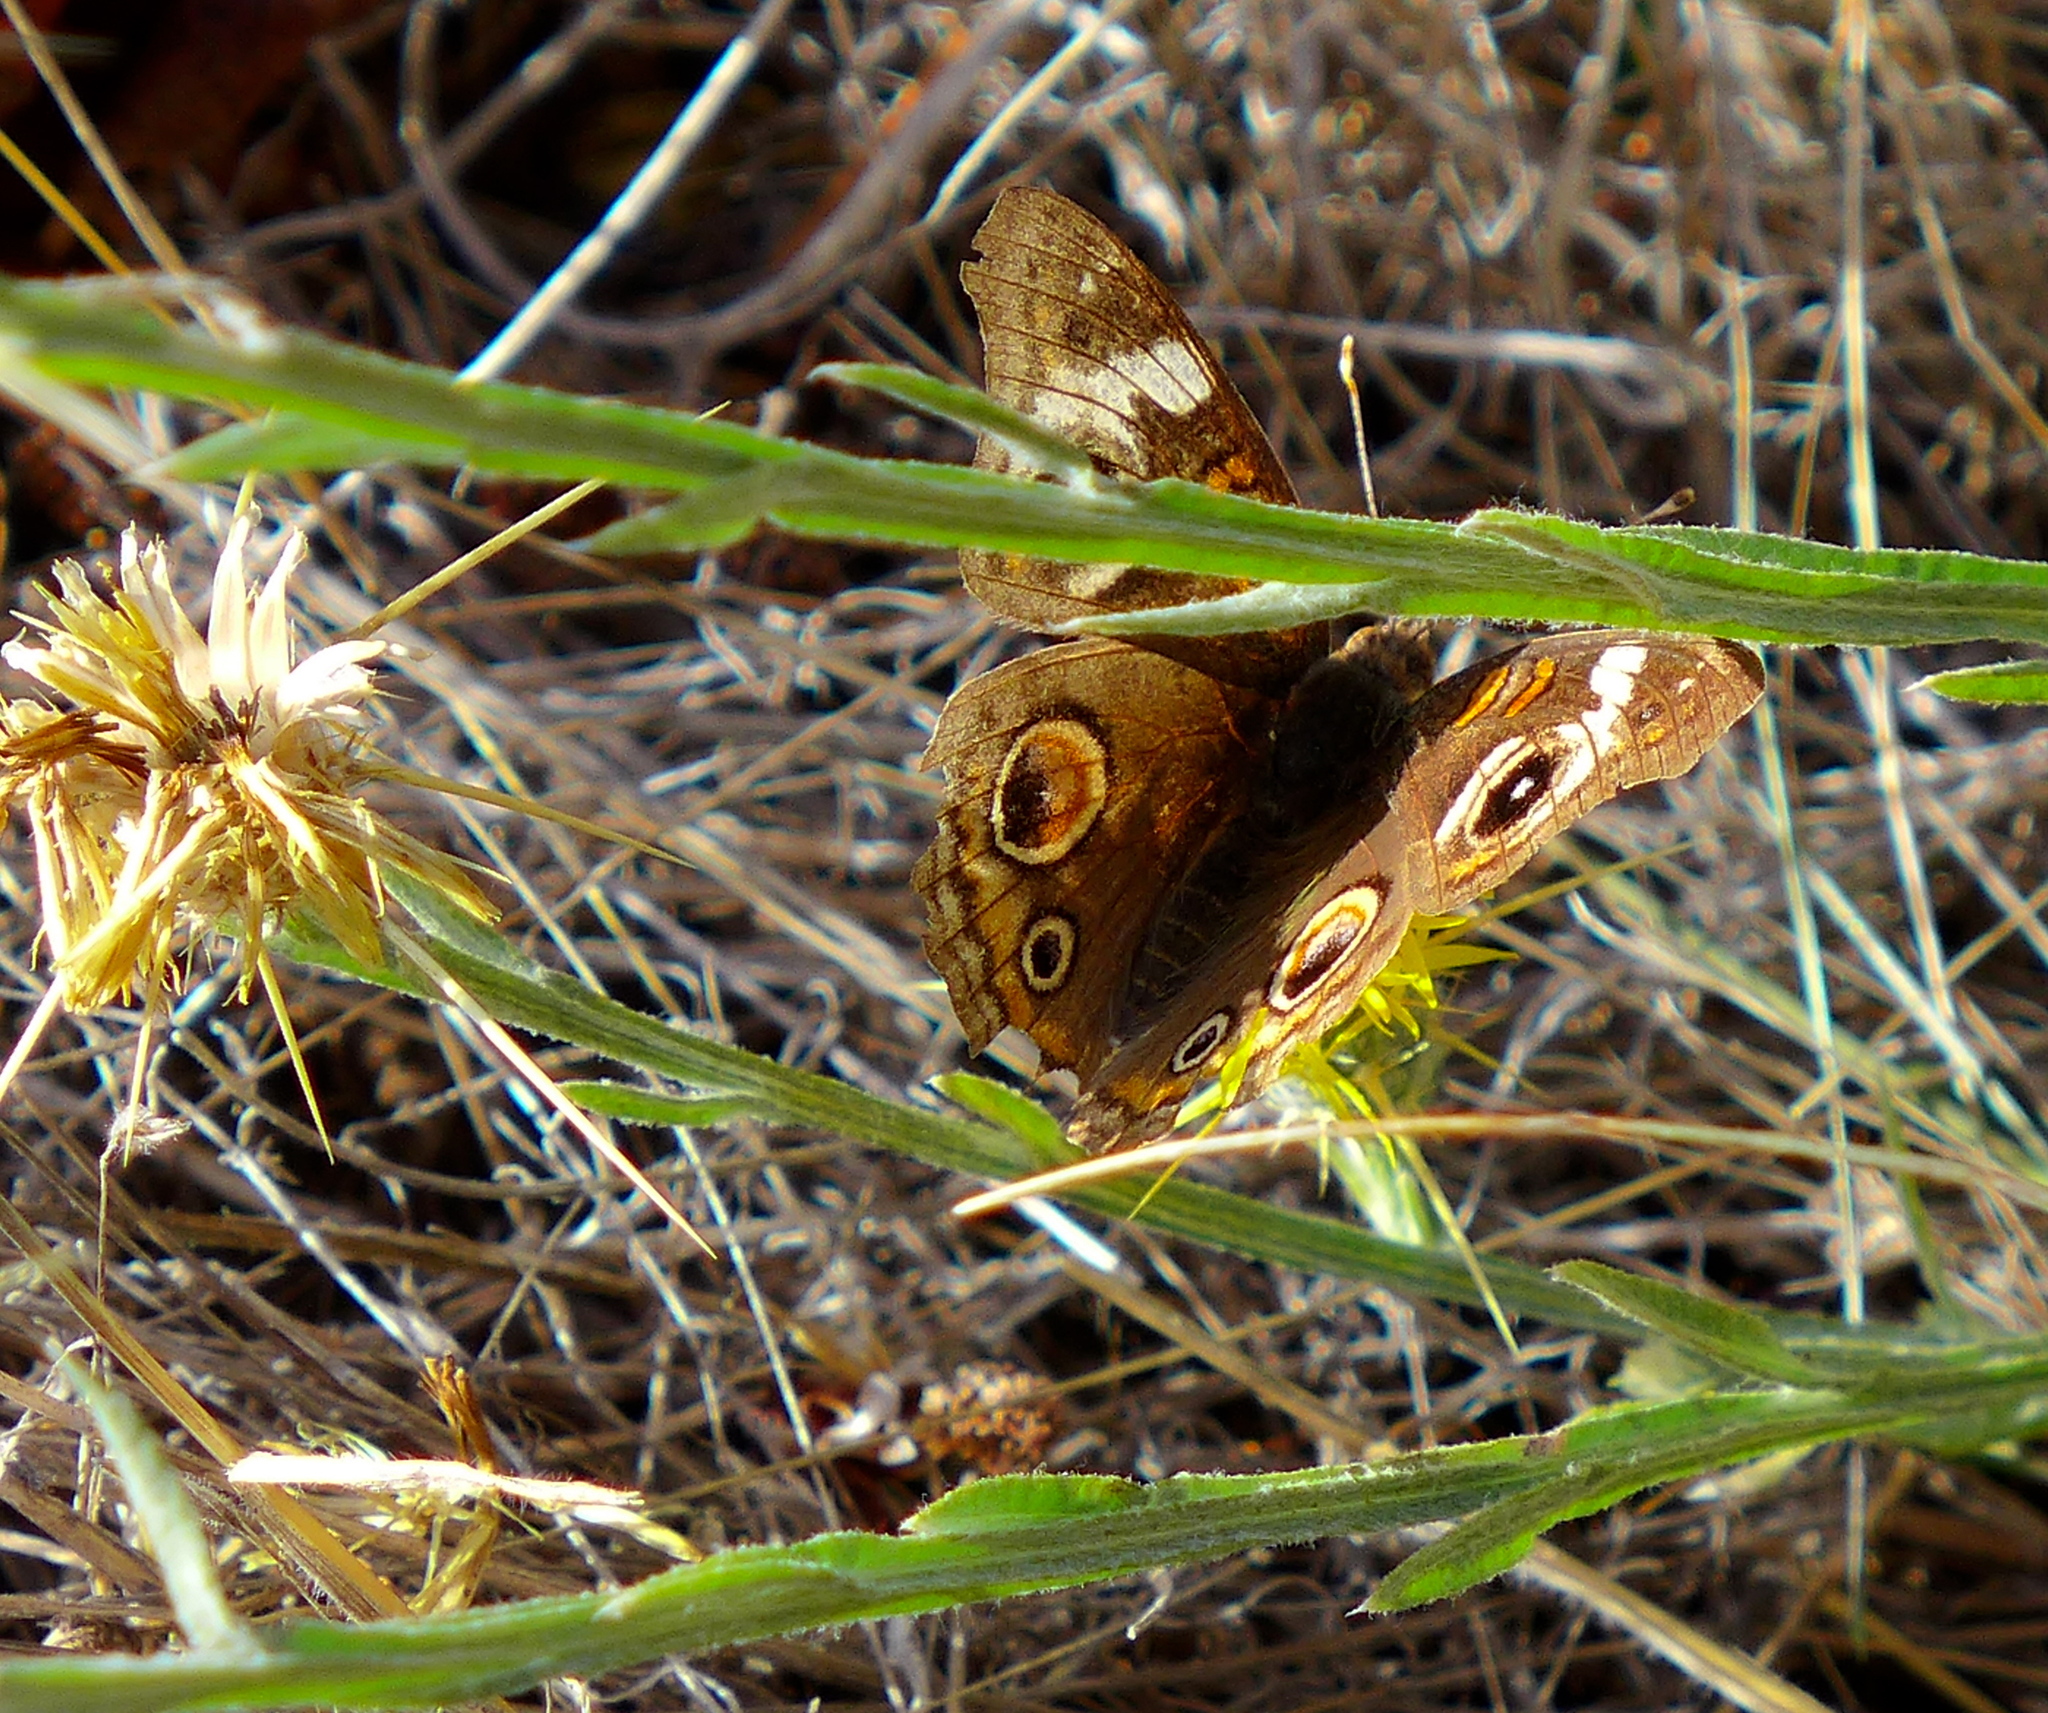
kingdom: Animalia
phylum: Arthropoda
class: Insecta
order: Lepidoptera
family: Nymphalidae
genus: Junonia
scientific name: Junonia grisea
